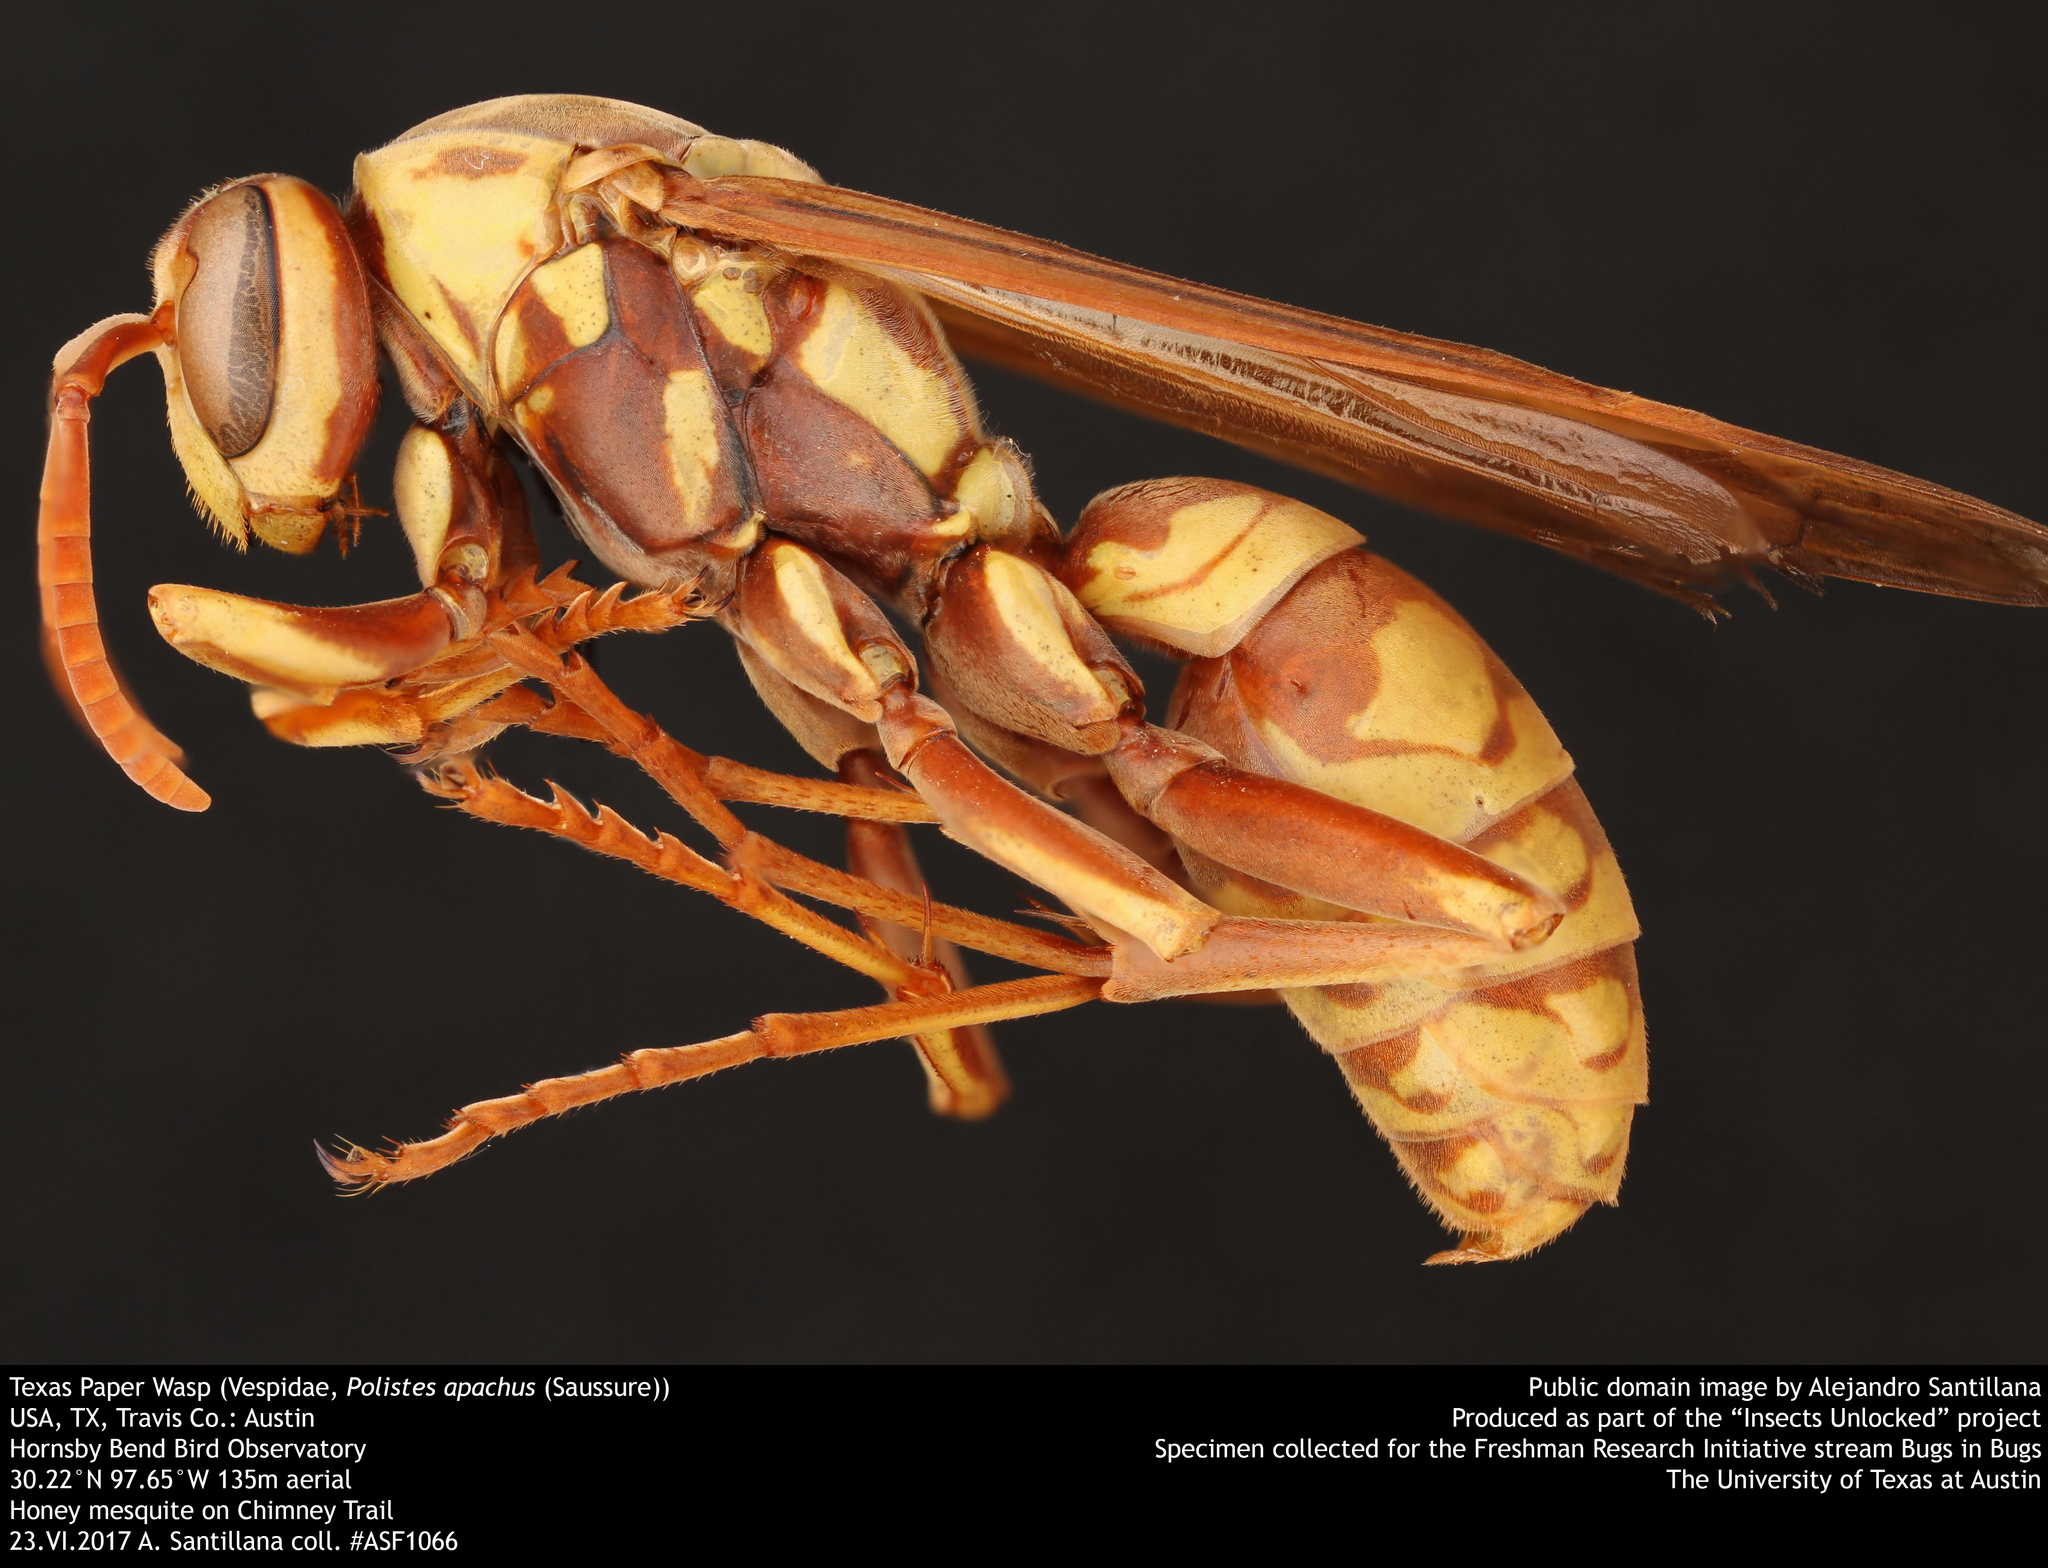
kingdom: Animalia
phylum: Arthropoda
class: Insecta
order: Hymenoptera
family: Eumenidae
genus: Polistes
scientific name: Polistes apachus
